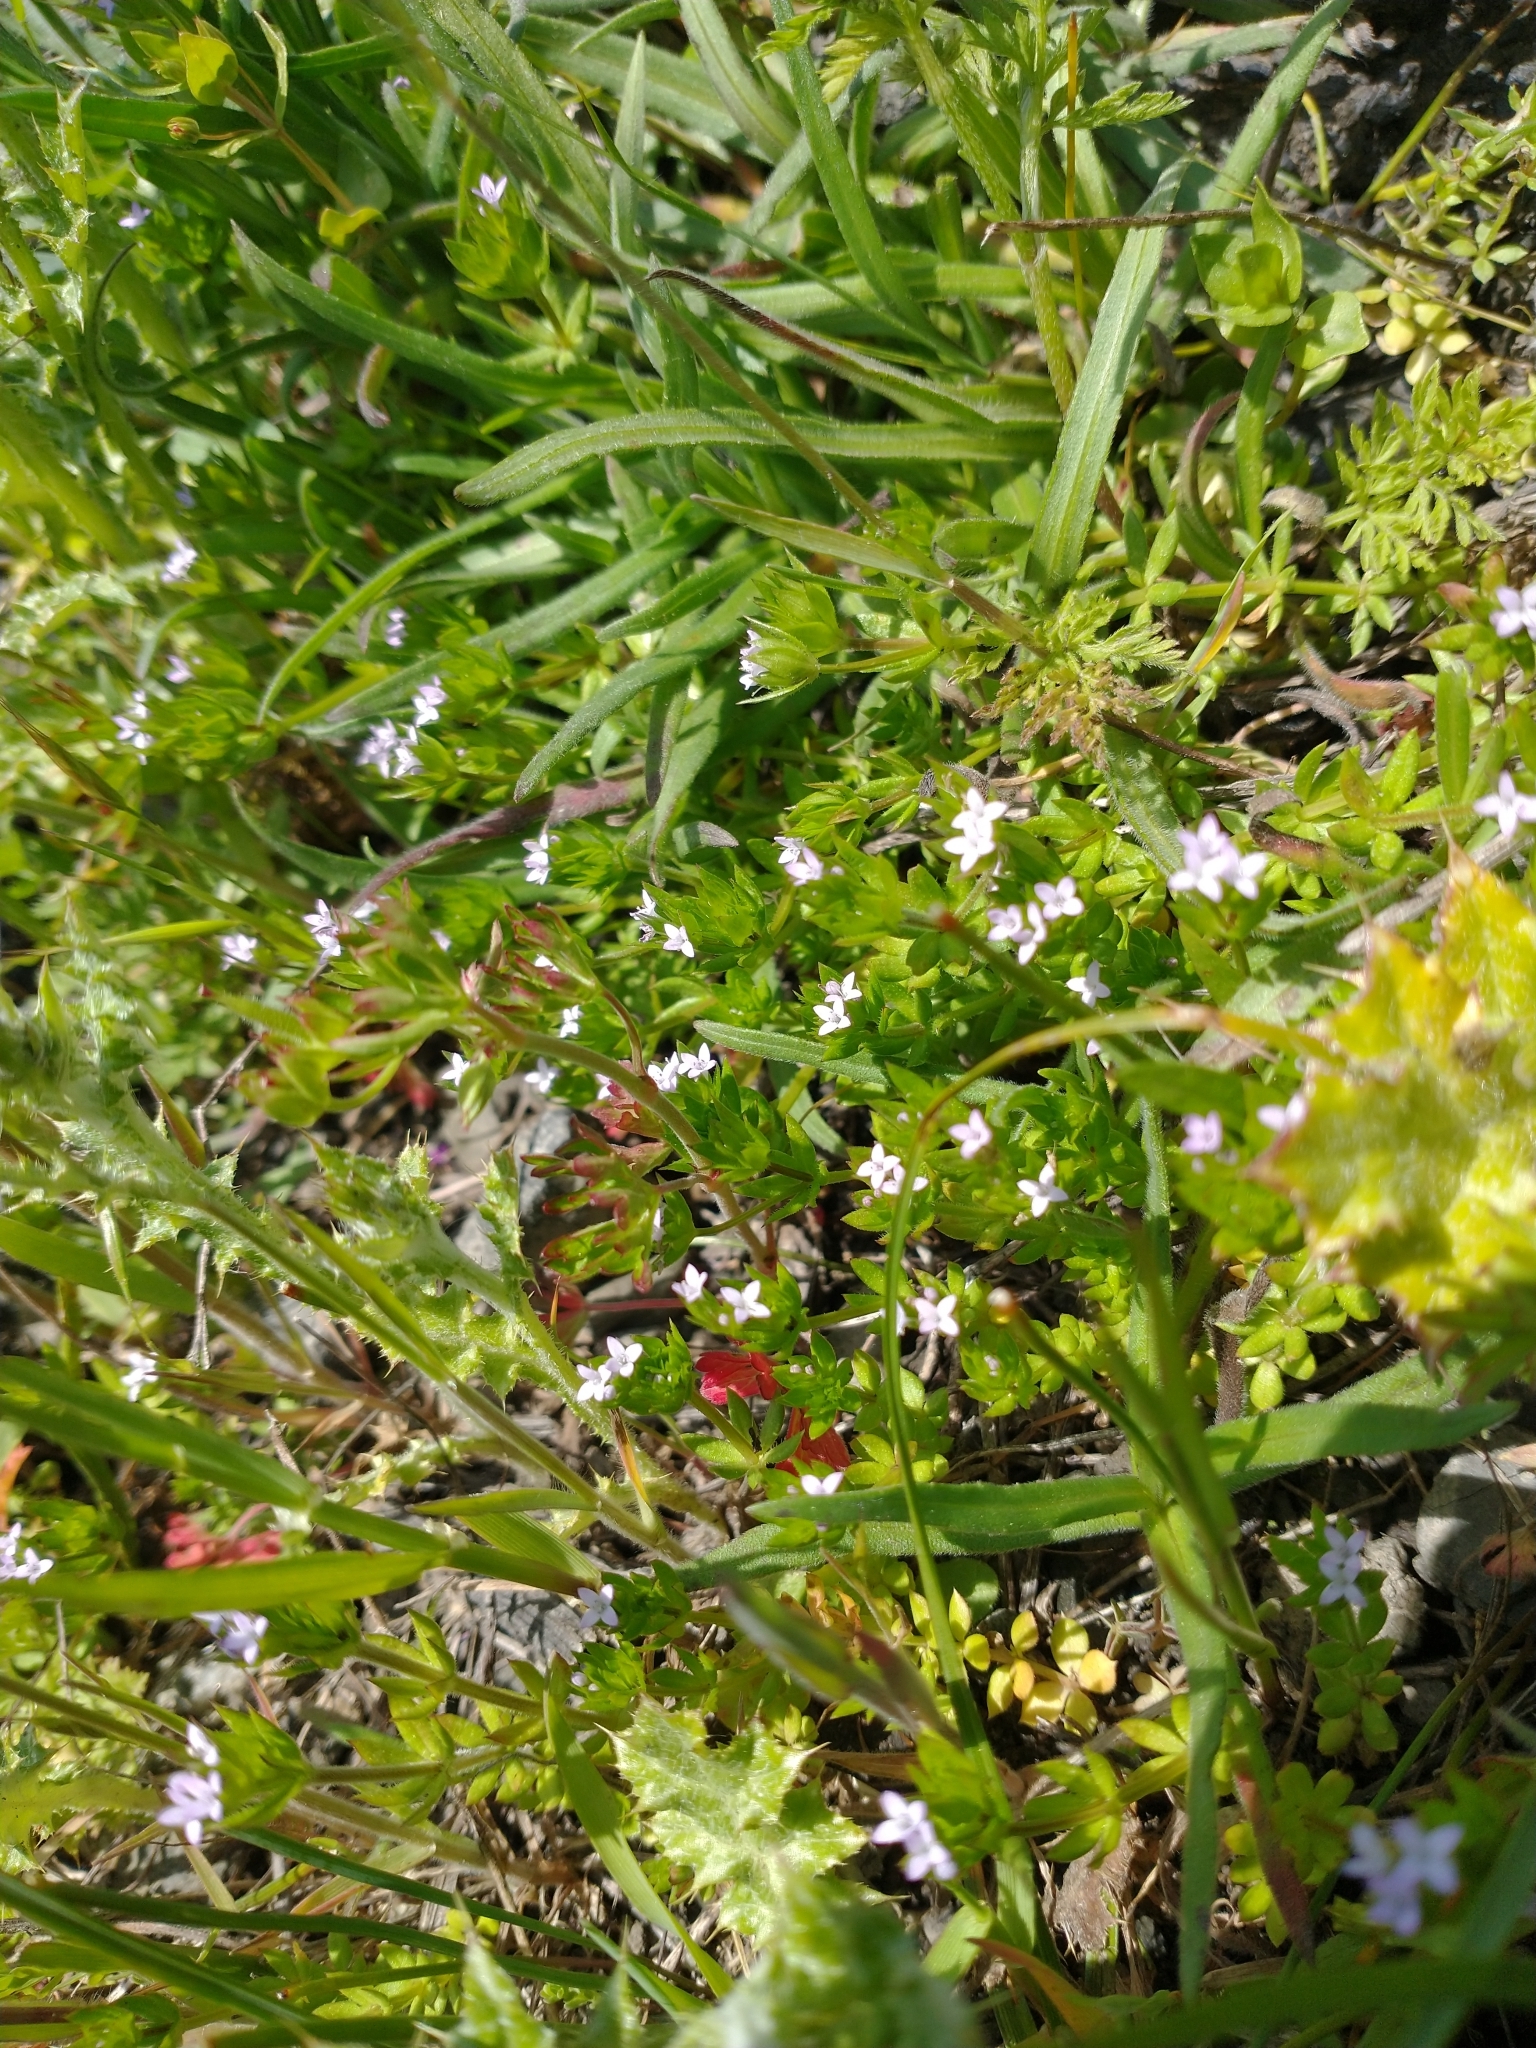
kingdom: Plantae
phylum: Tracheophyta
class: Magnoliopsida
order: Gentianales
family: Rubiaceae
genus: Sherardia
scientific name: Sherardia arvensis
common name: Field madder
